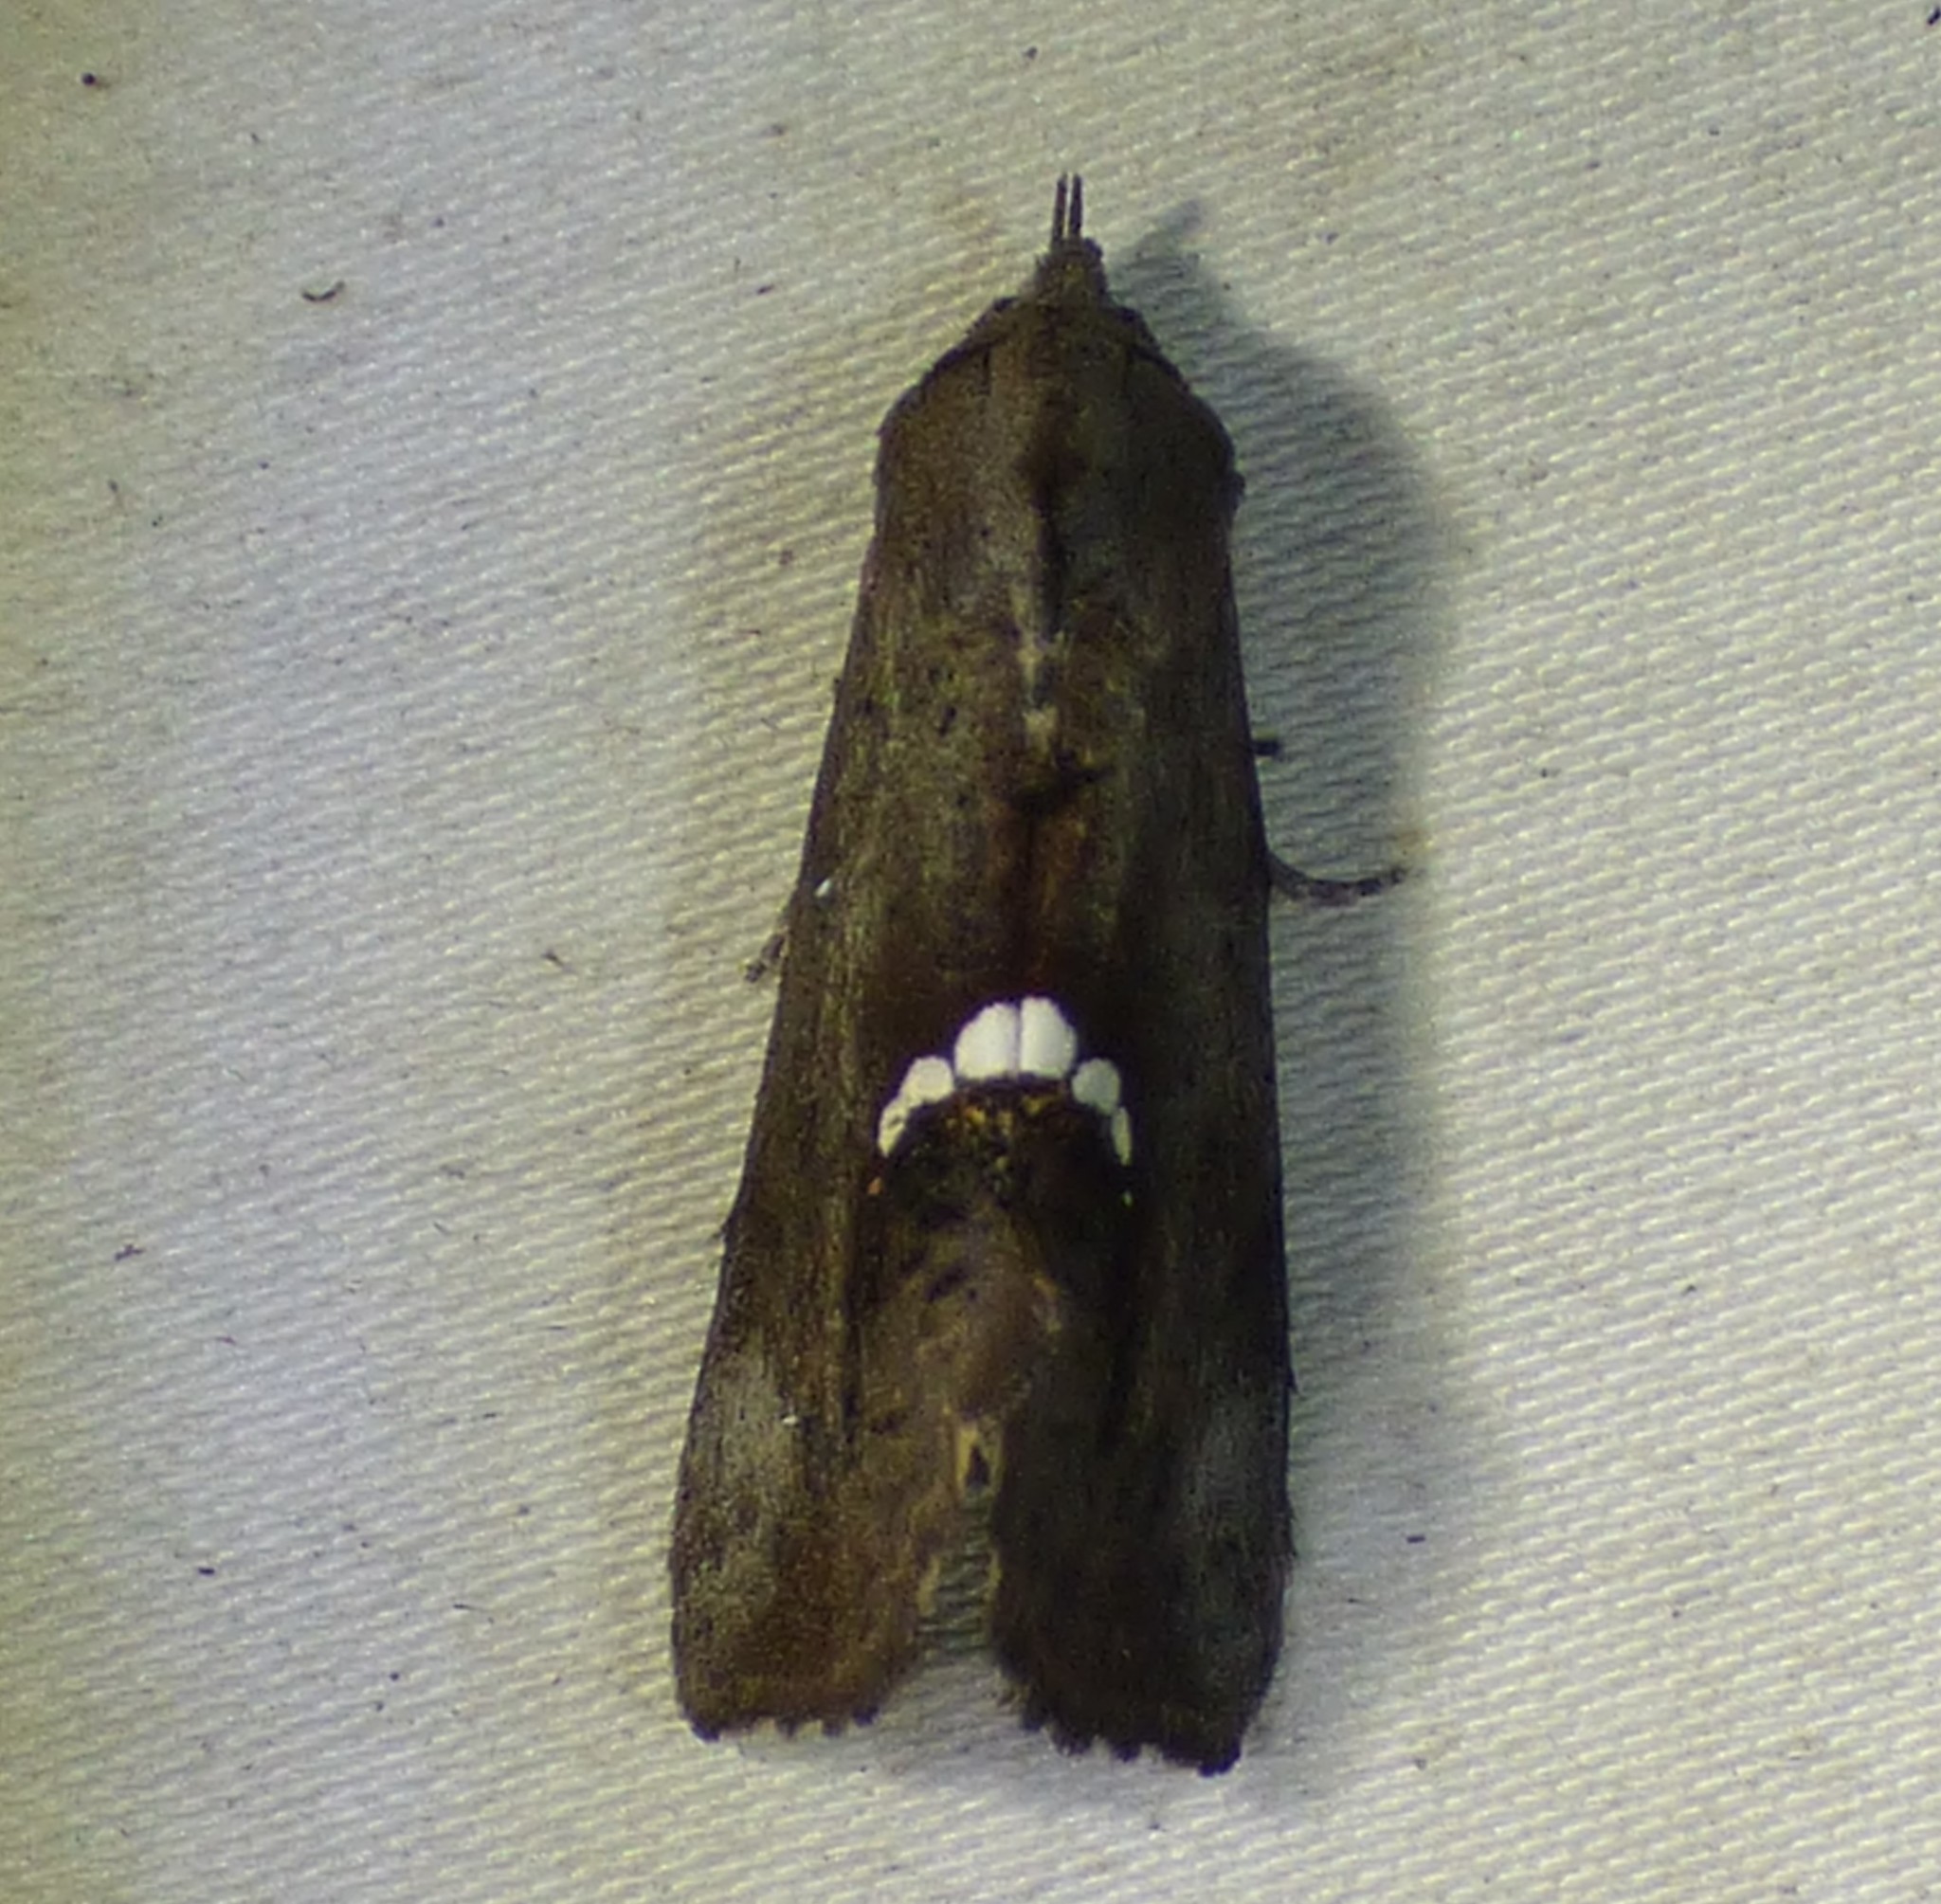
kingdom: Animalia
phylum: Arthropoda
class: Insecta
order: Lepidoptera
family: Erebidae
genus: Hypsoropha
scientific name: Hypsoropha hormos
